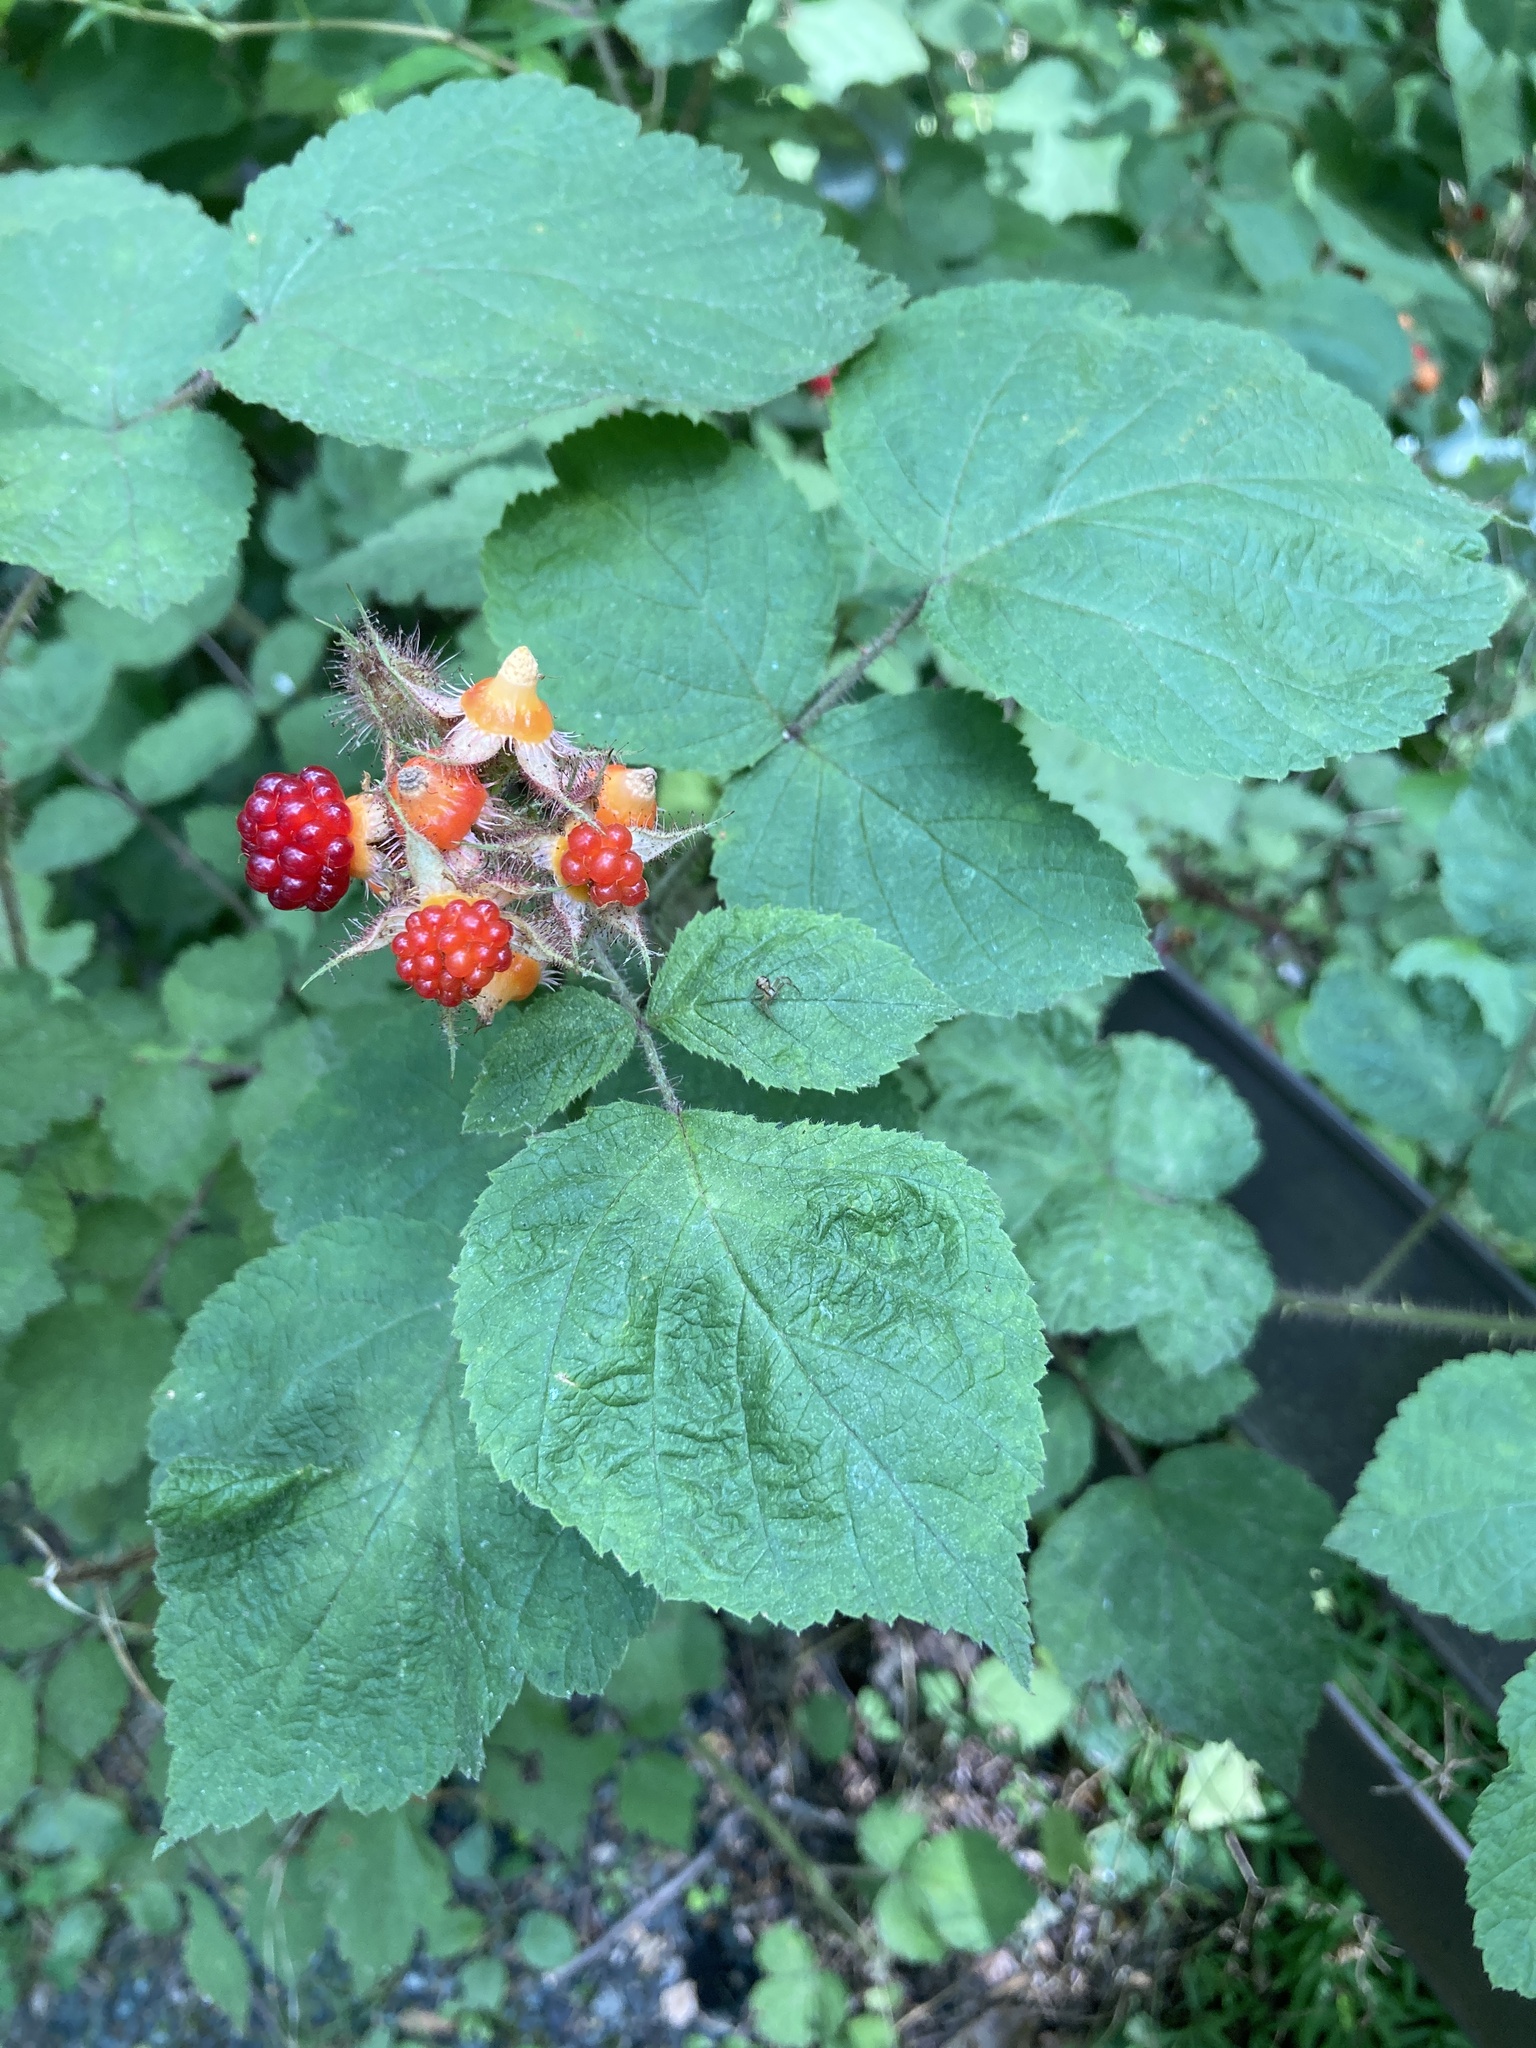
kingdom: Plantae
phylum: Tracheophyta
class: Magnoliopsida
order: Rosales
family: Rosaceae
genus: Rubus
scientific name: Rubus phoenicolasius
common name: Japanese wineberry
